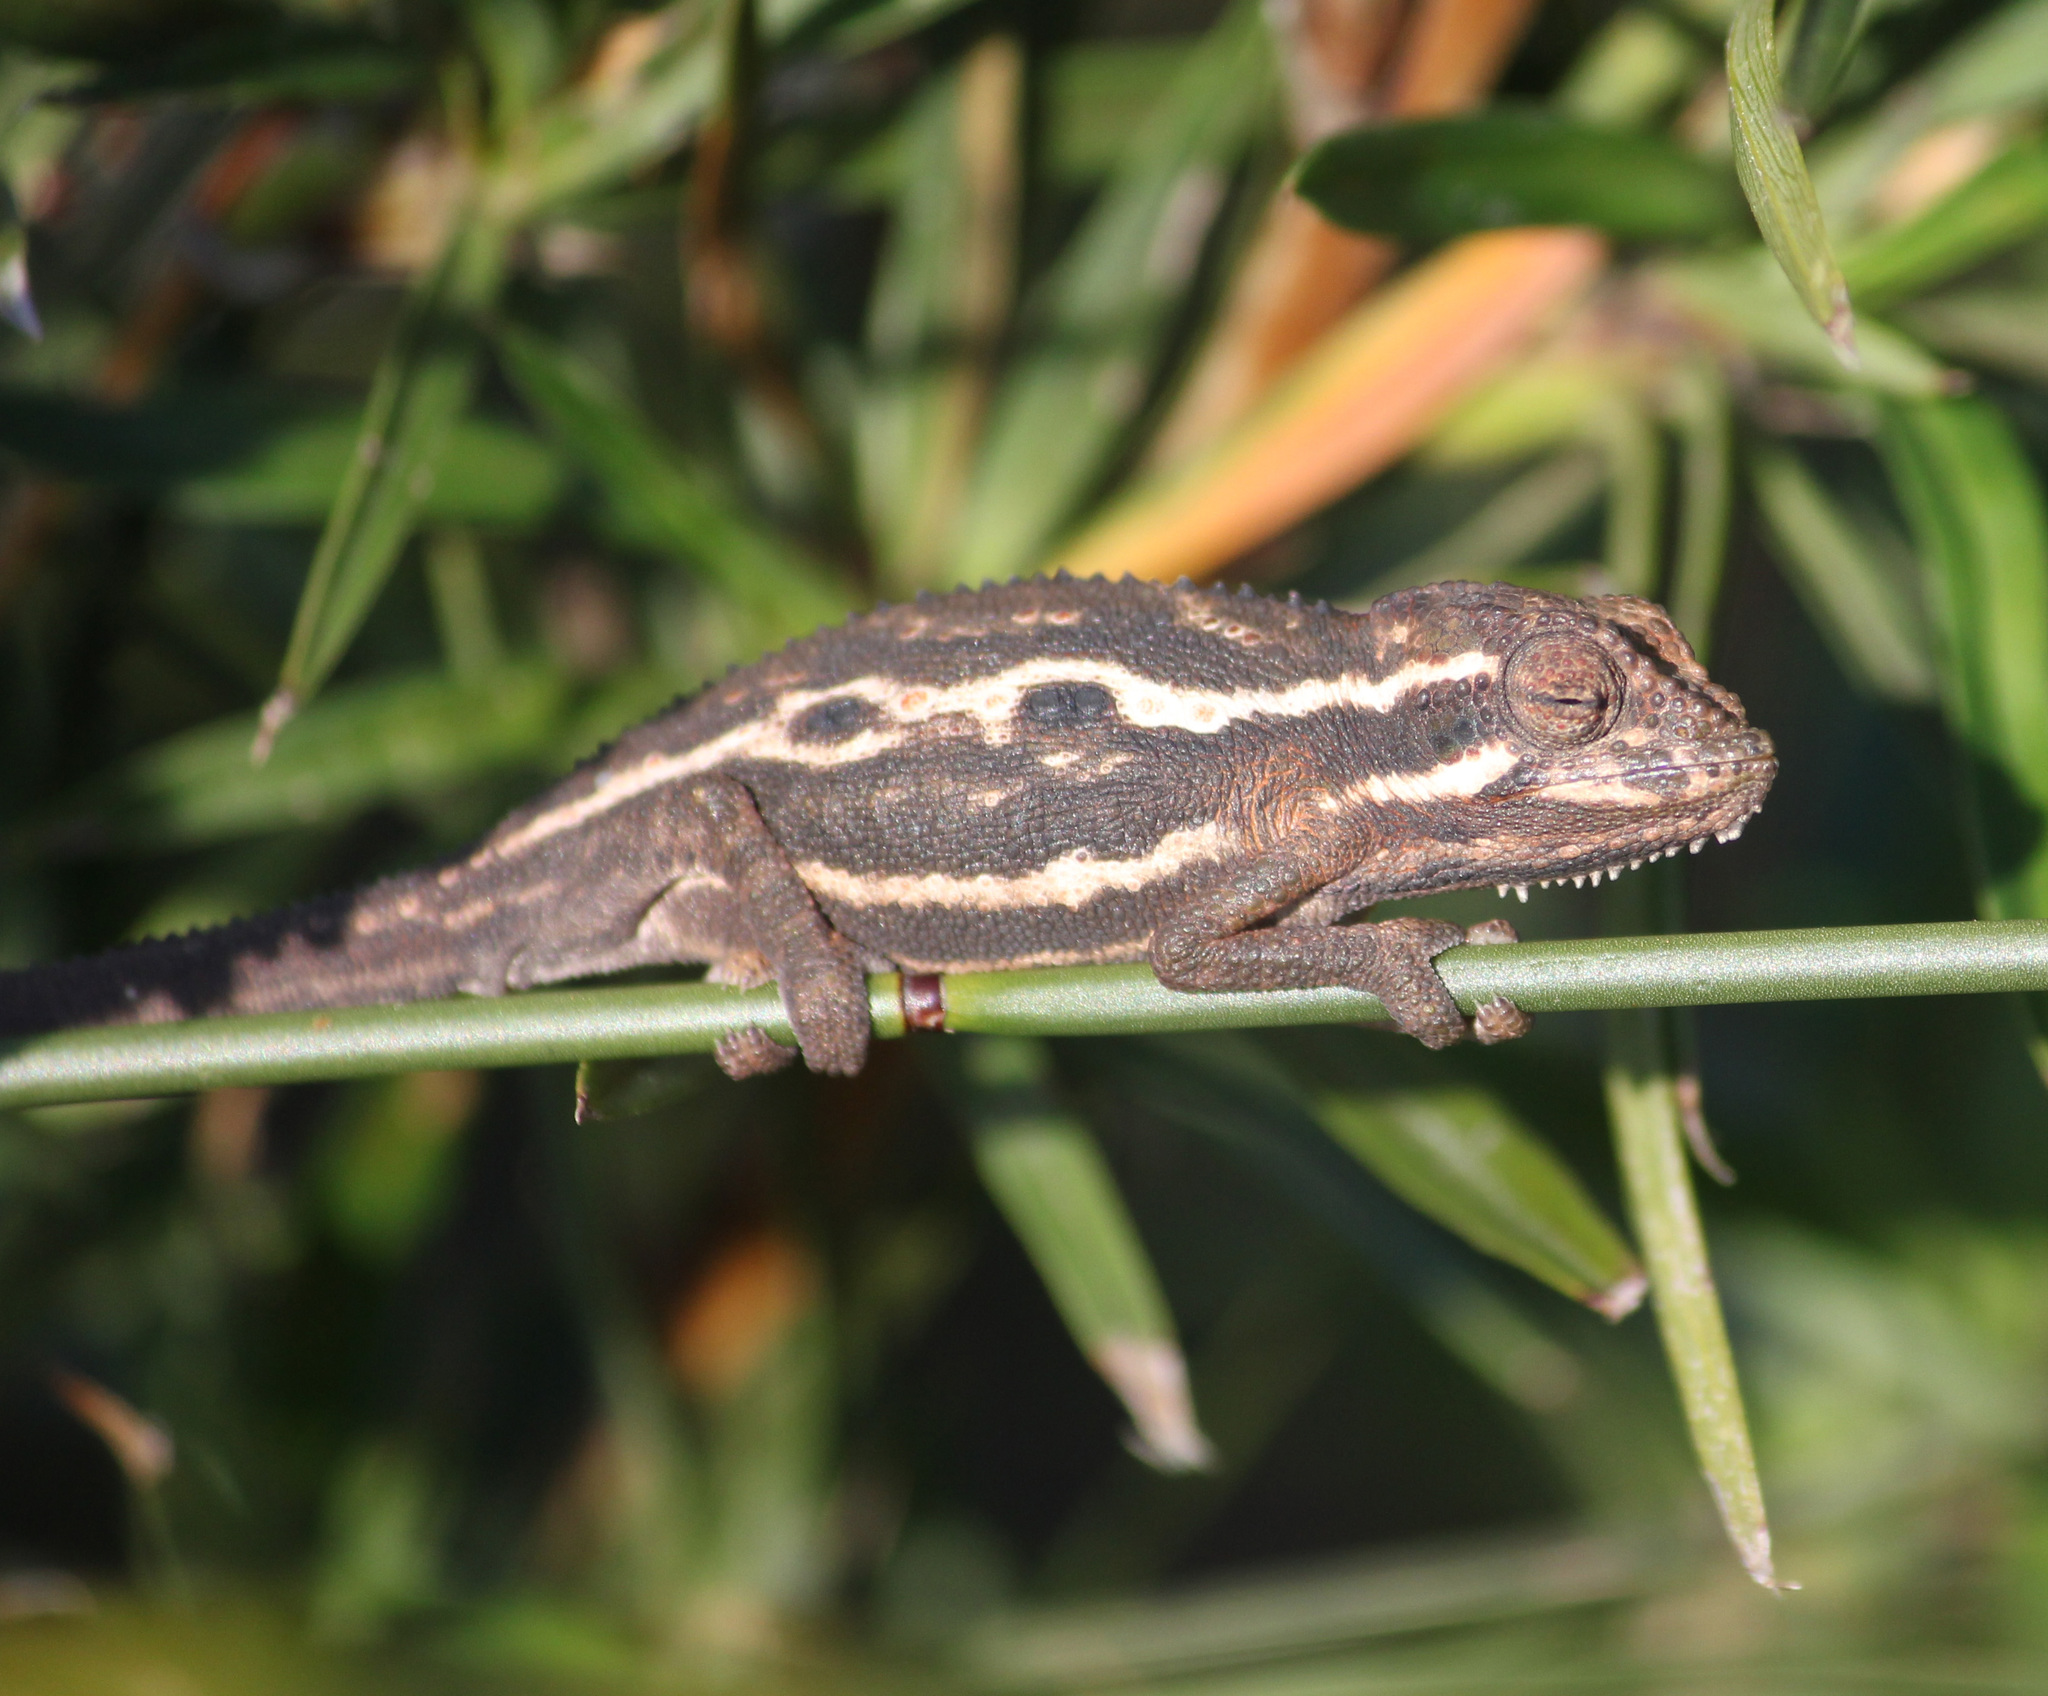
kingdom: Animalia
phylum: Chordata
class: Squamata
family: Chamaeleonidae
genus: Bradypodion
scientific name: Bradypodion pumilum
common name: Cape dwarf chameleon
